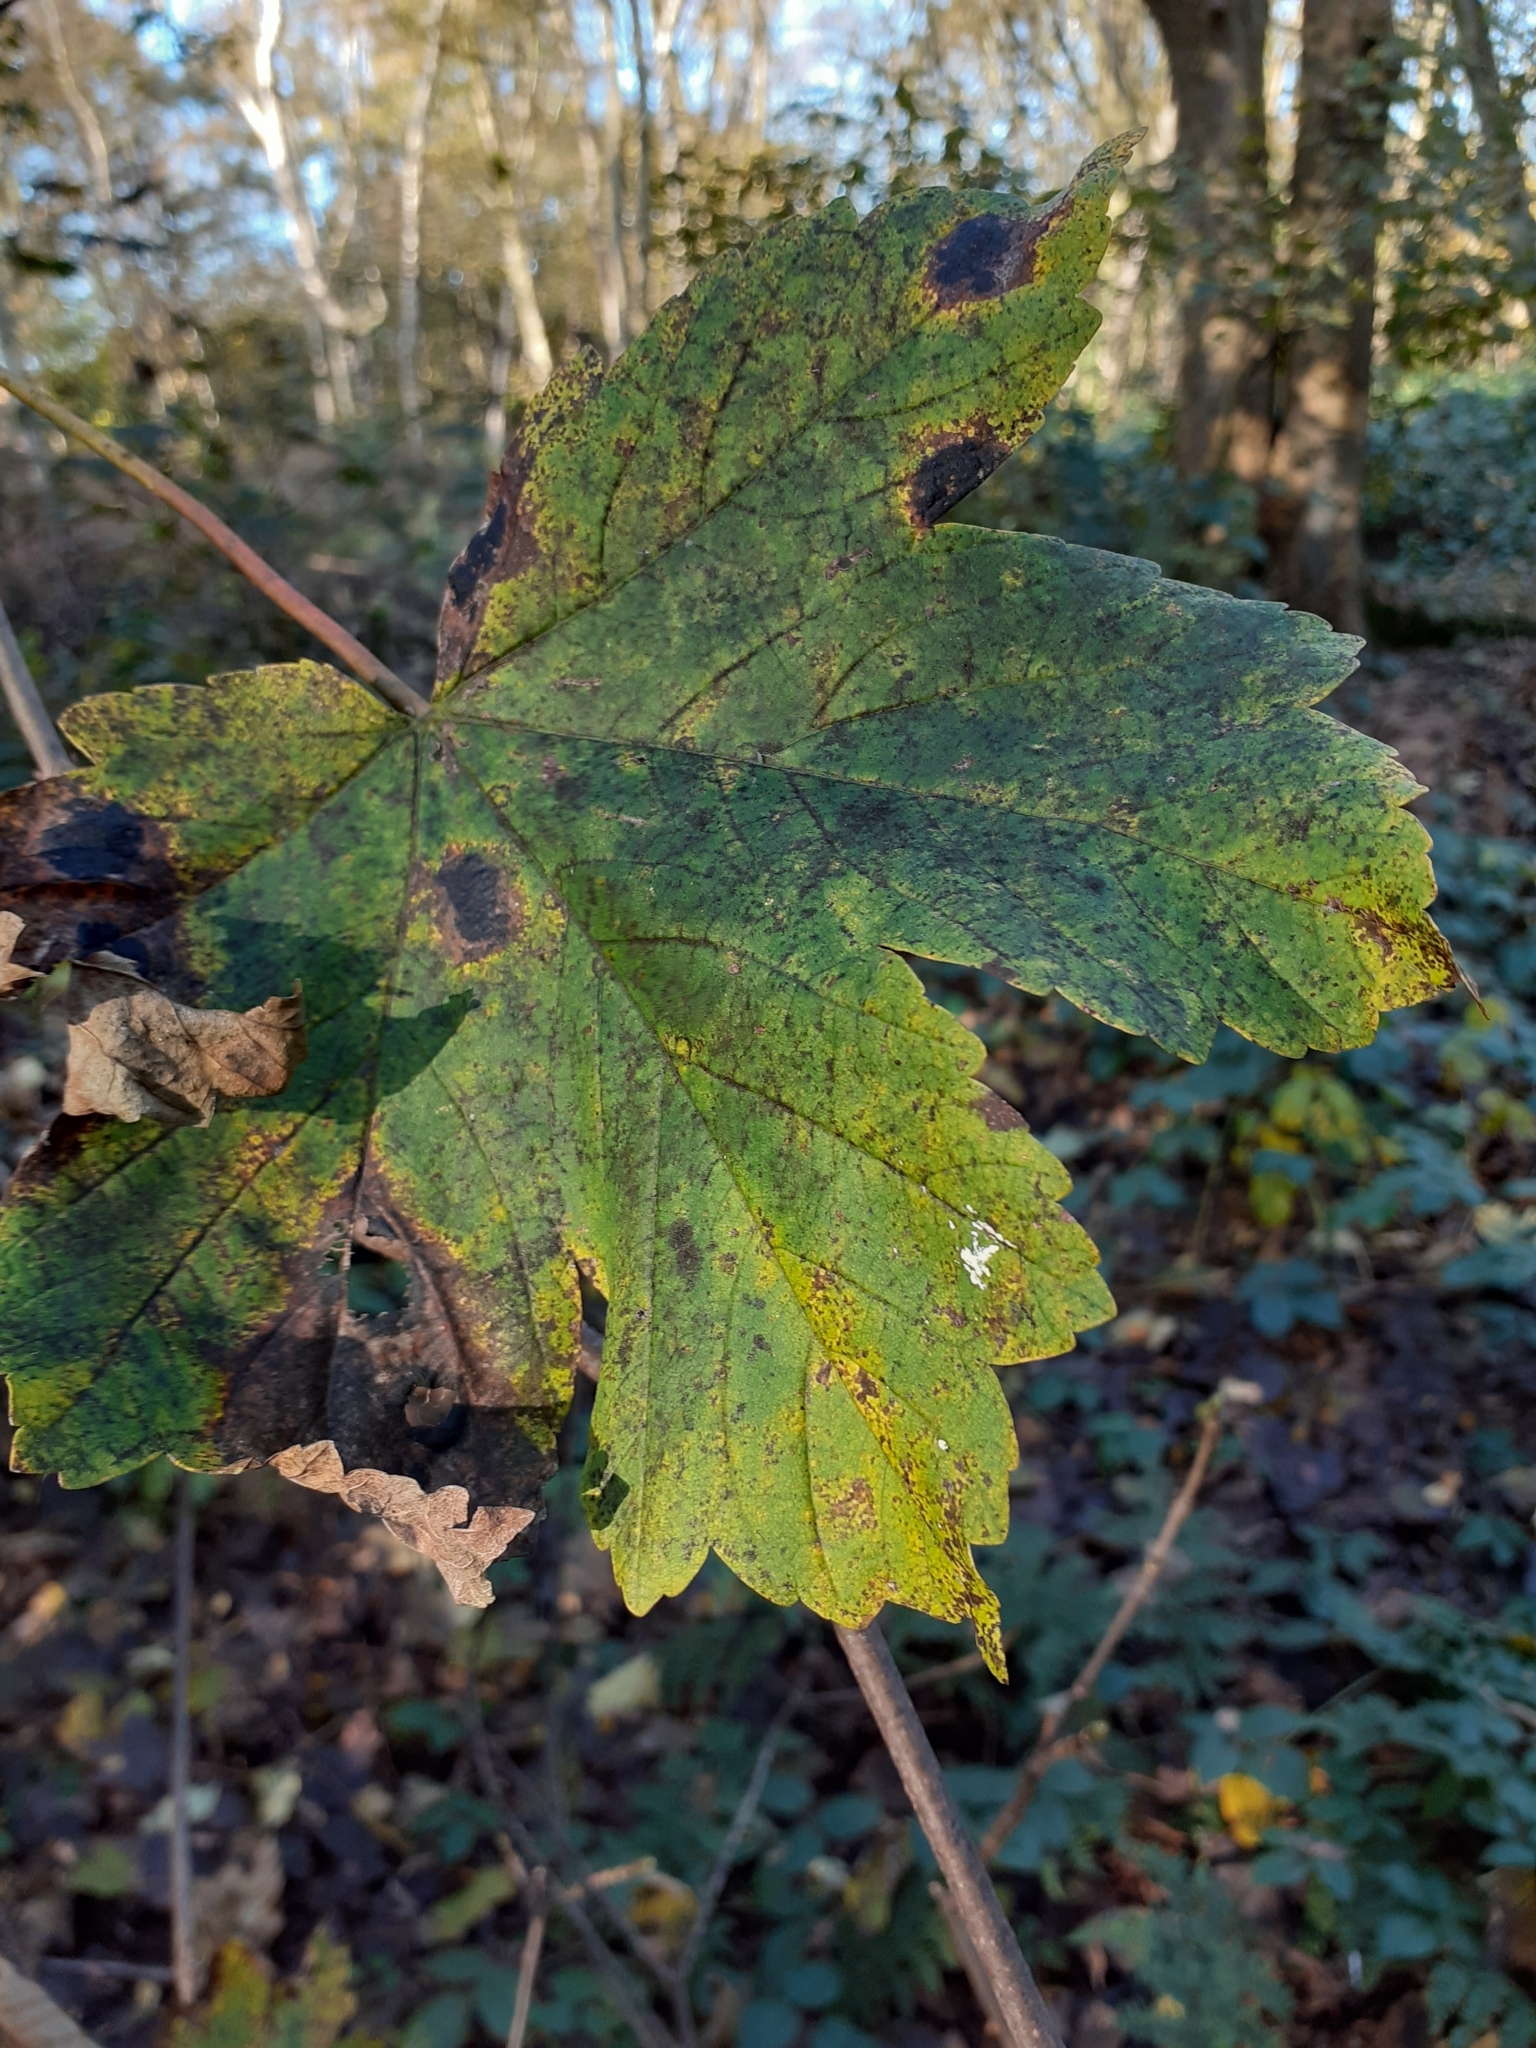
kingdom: Fungi
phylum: Ascomycota
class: Leotiomycetes
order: Rhytismatales
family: Rhytismataceae
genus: Rhytisma
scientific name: Rhytisma acerinum
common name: European tar spot
